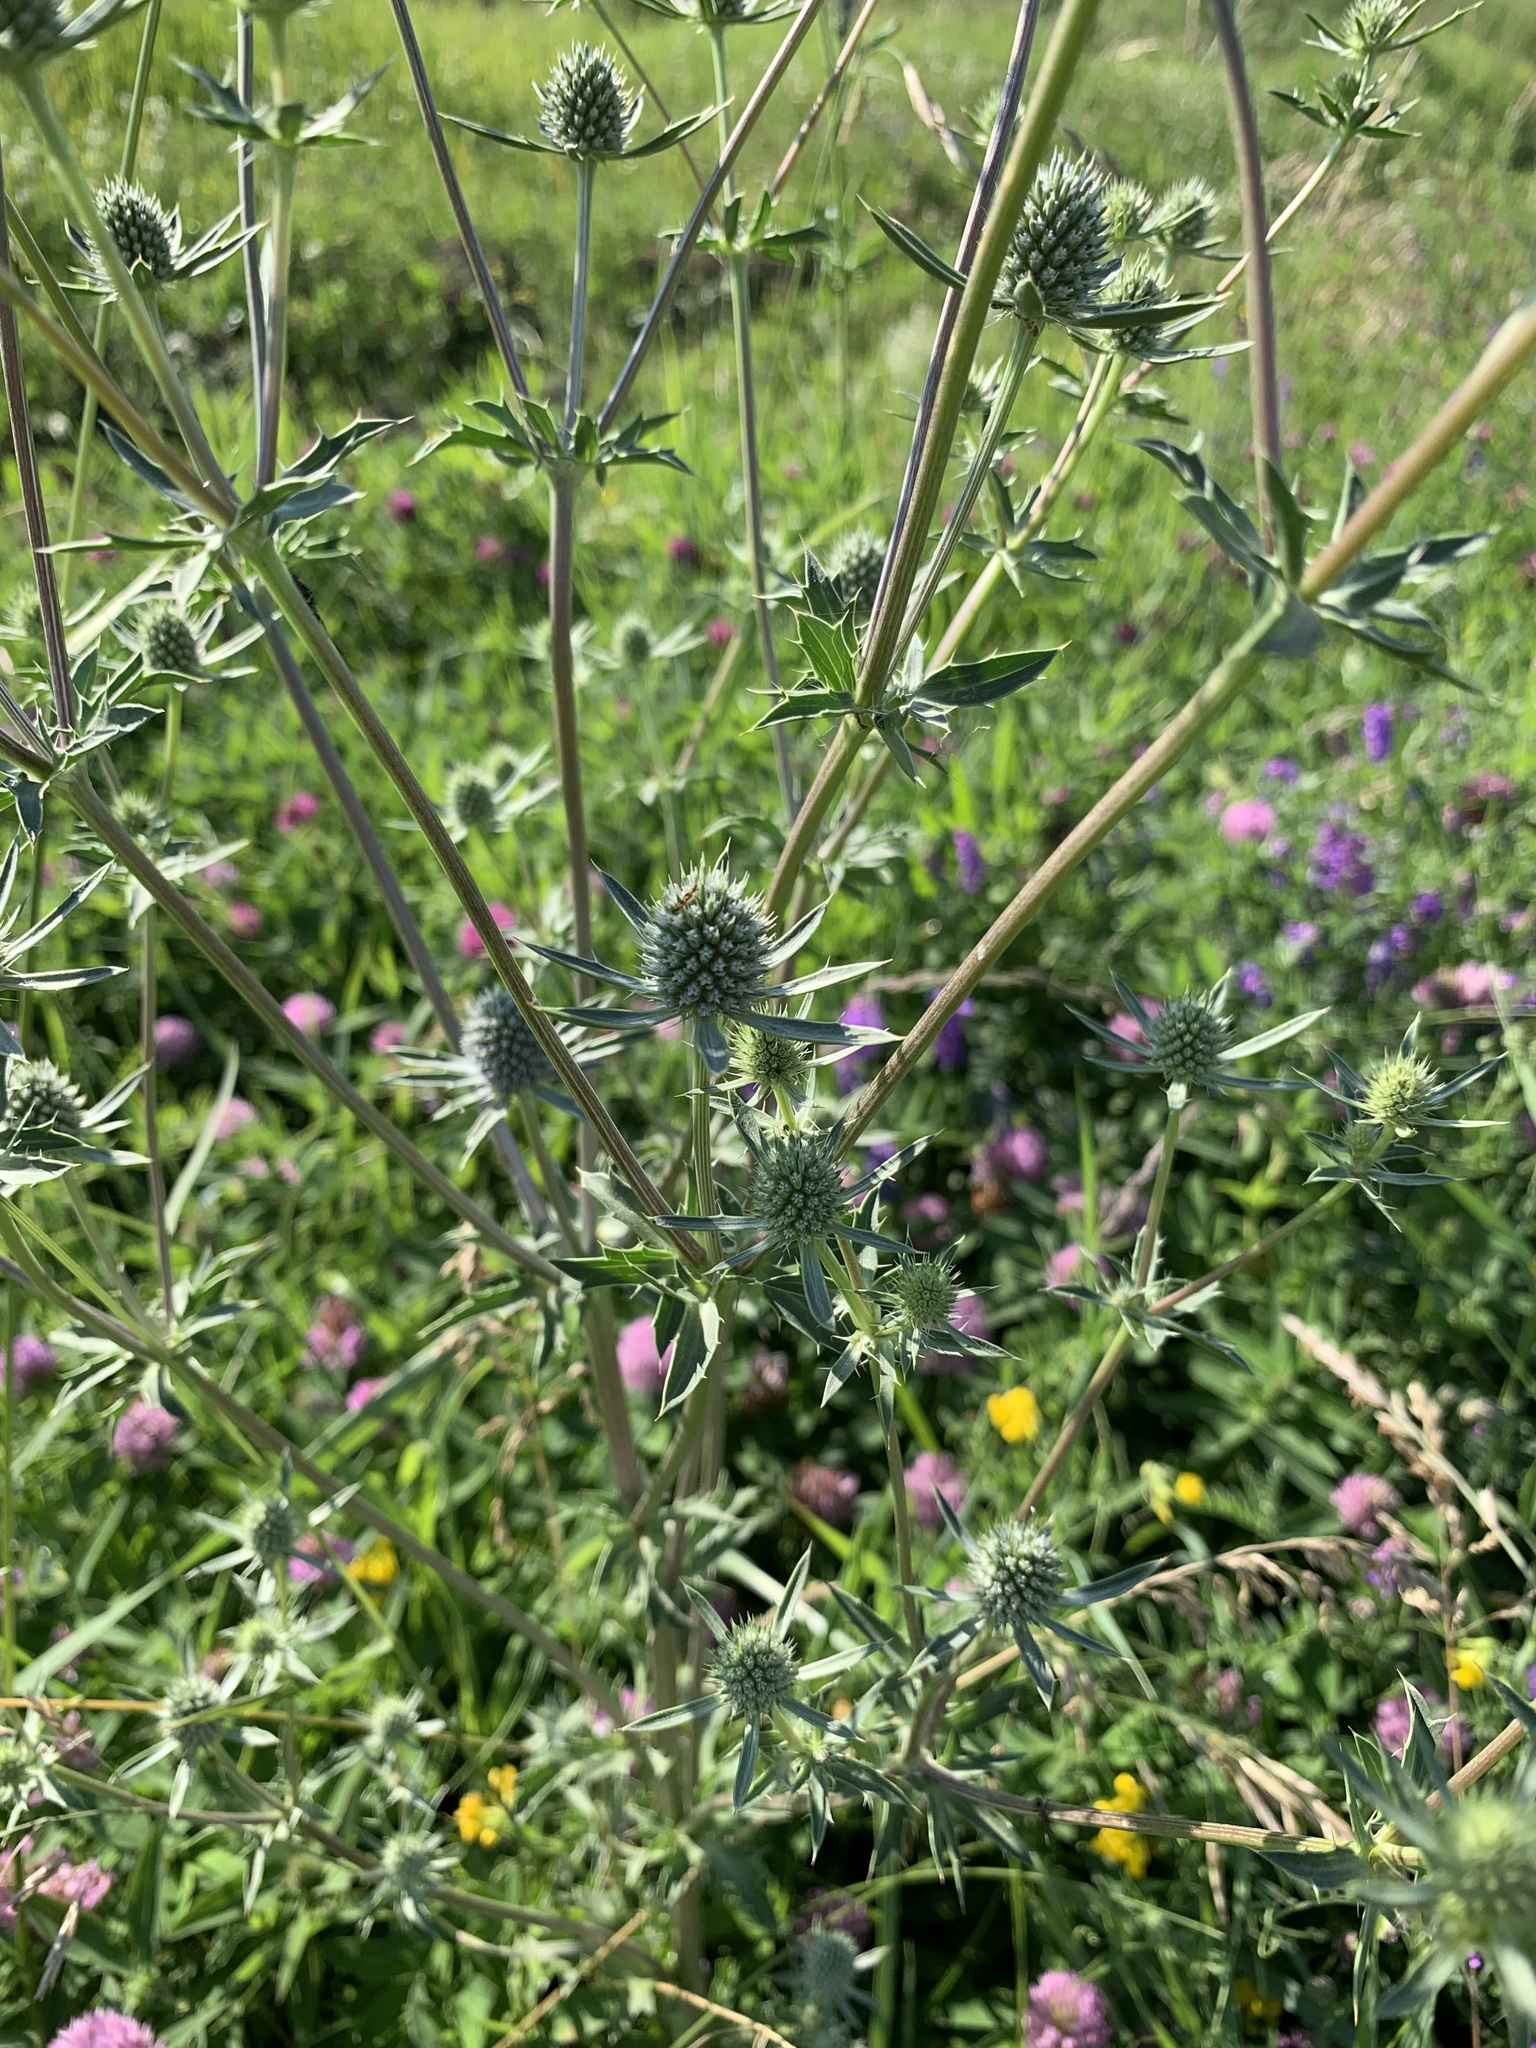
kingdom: Plantae
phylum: Tracheophyta
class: Magnoliopsida
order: Apiales
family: Apiaceae
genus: Eryngium
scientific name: Eryngium planum
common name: Blue eryngo
